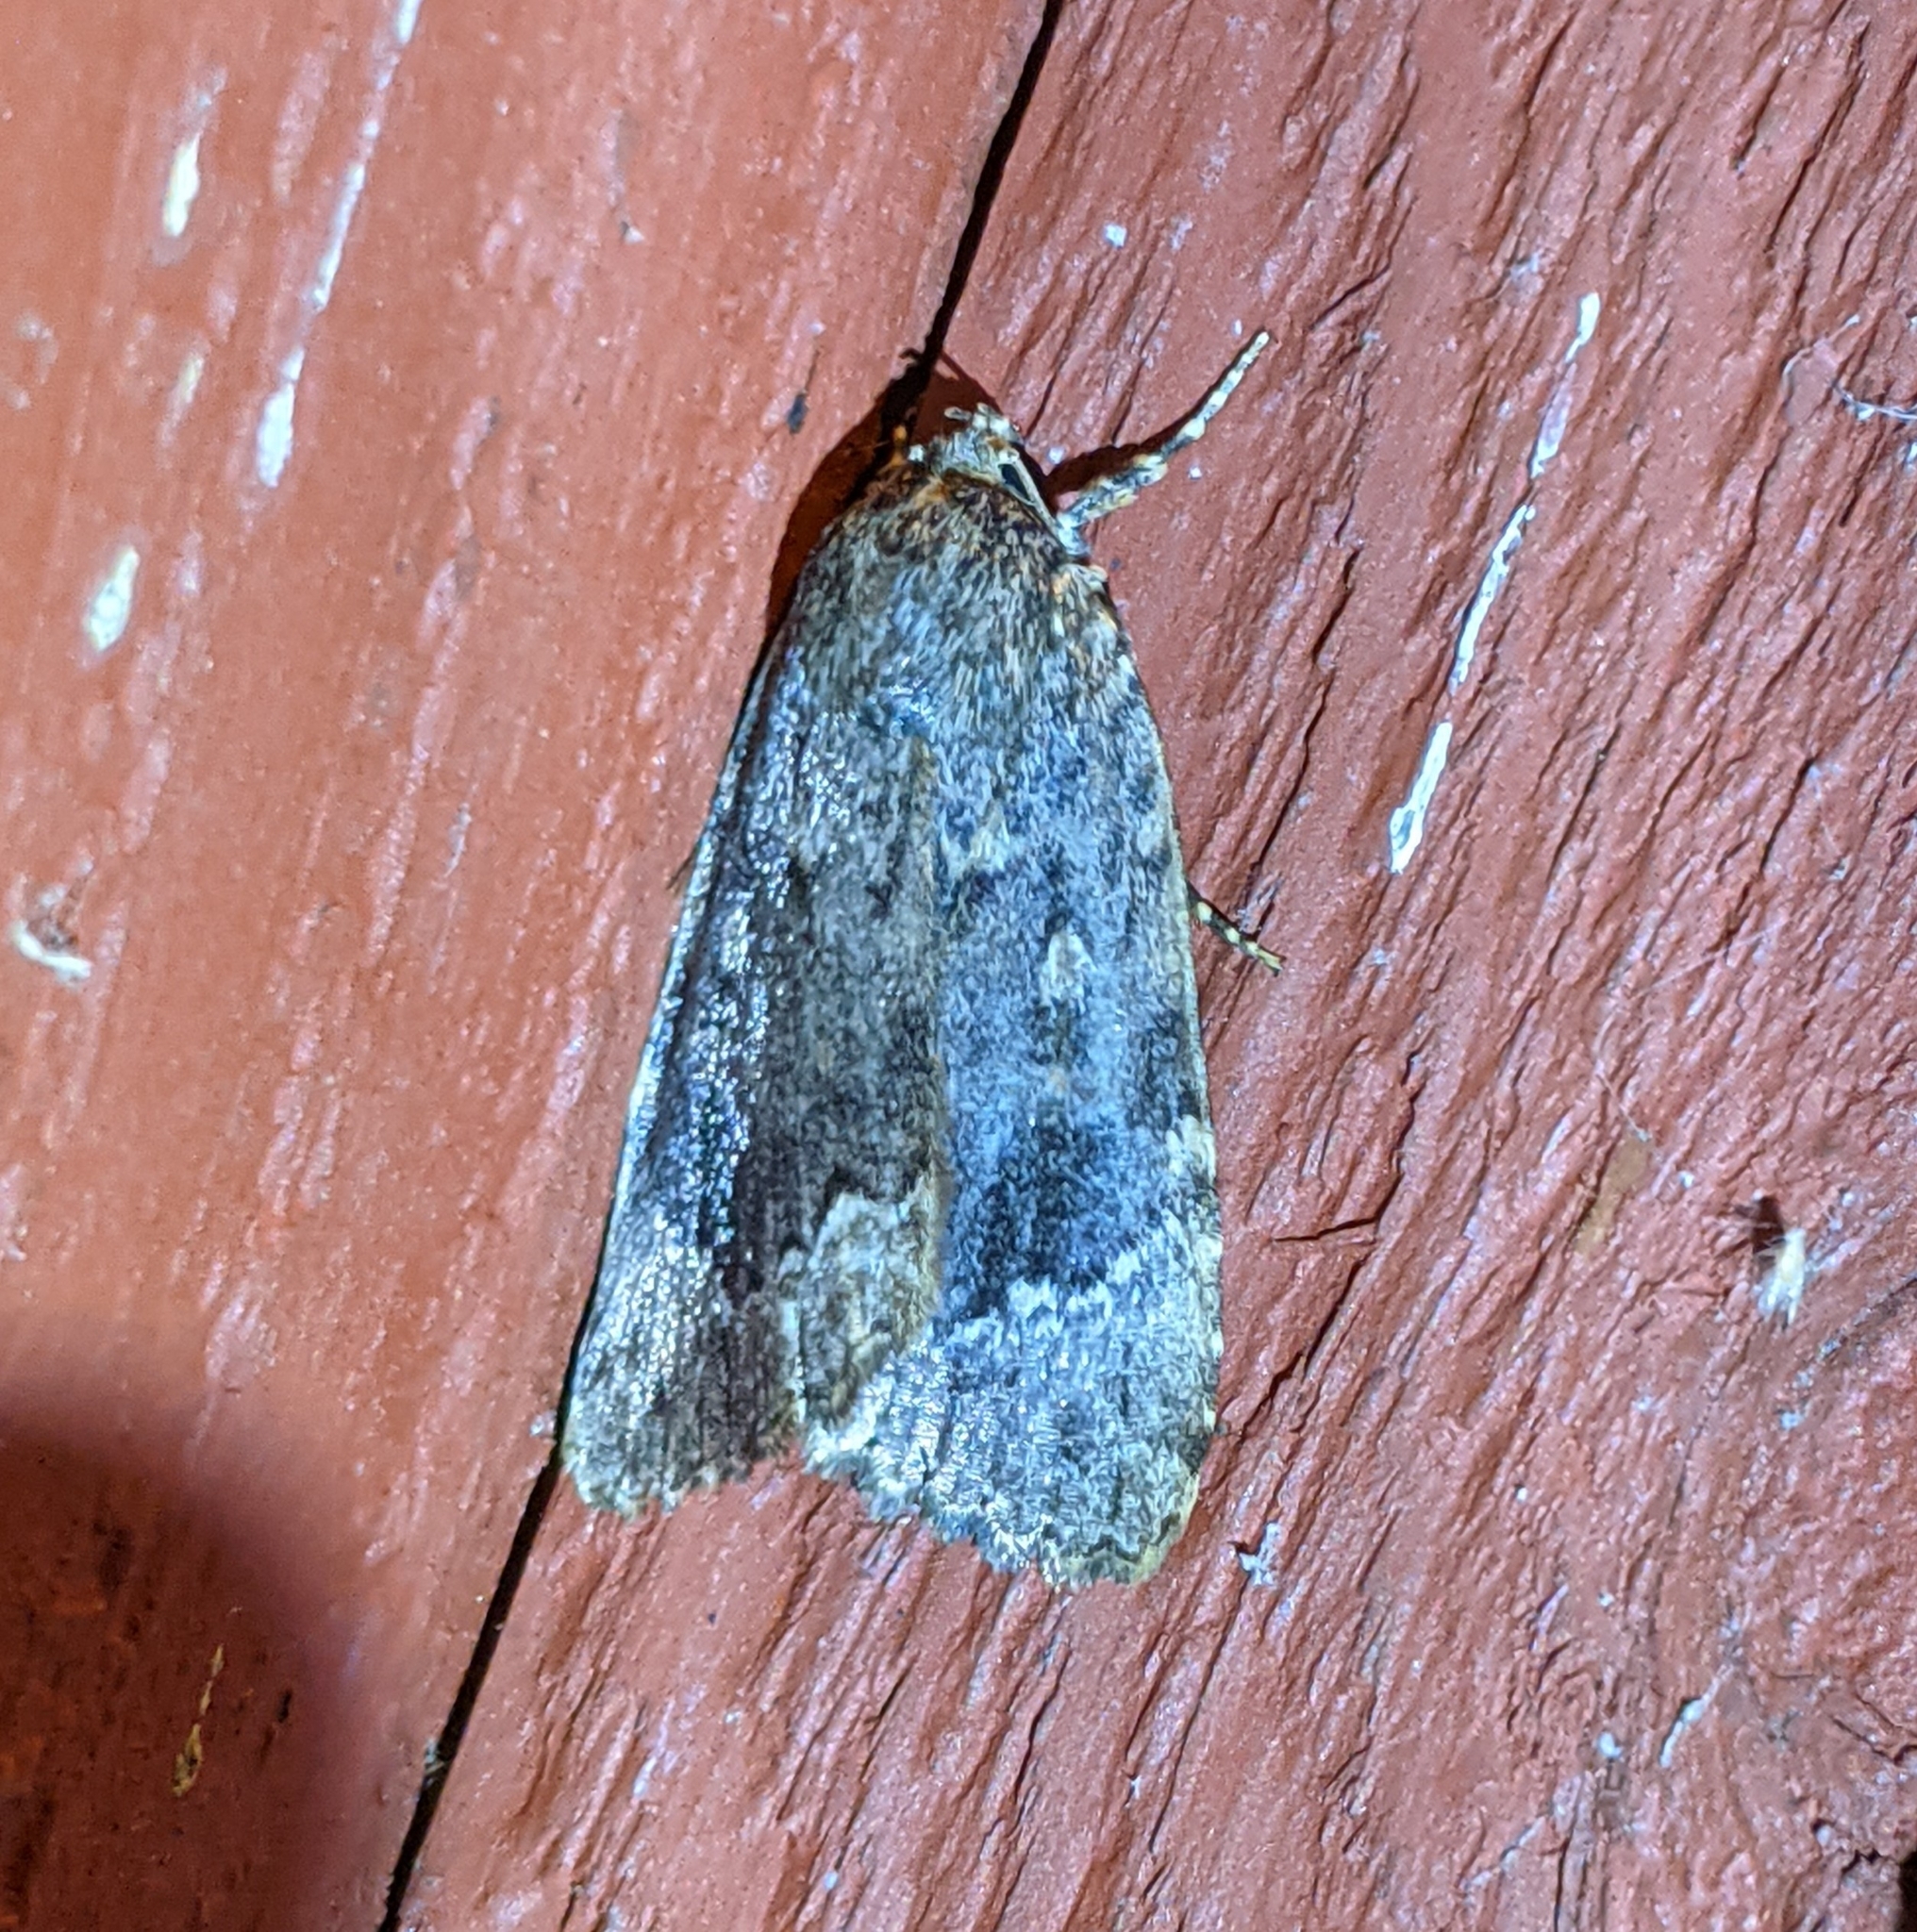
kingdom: Animalia
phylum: Arthropoda
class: Insecta
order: Lepidoptera
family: Noctuidae
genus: Amphipyra
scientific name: Amphipyra pyramidoides
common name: American copper underwing
